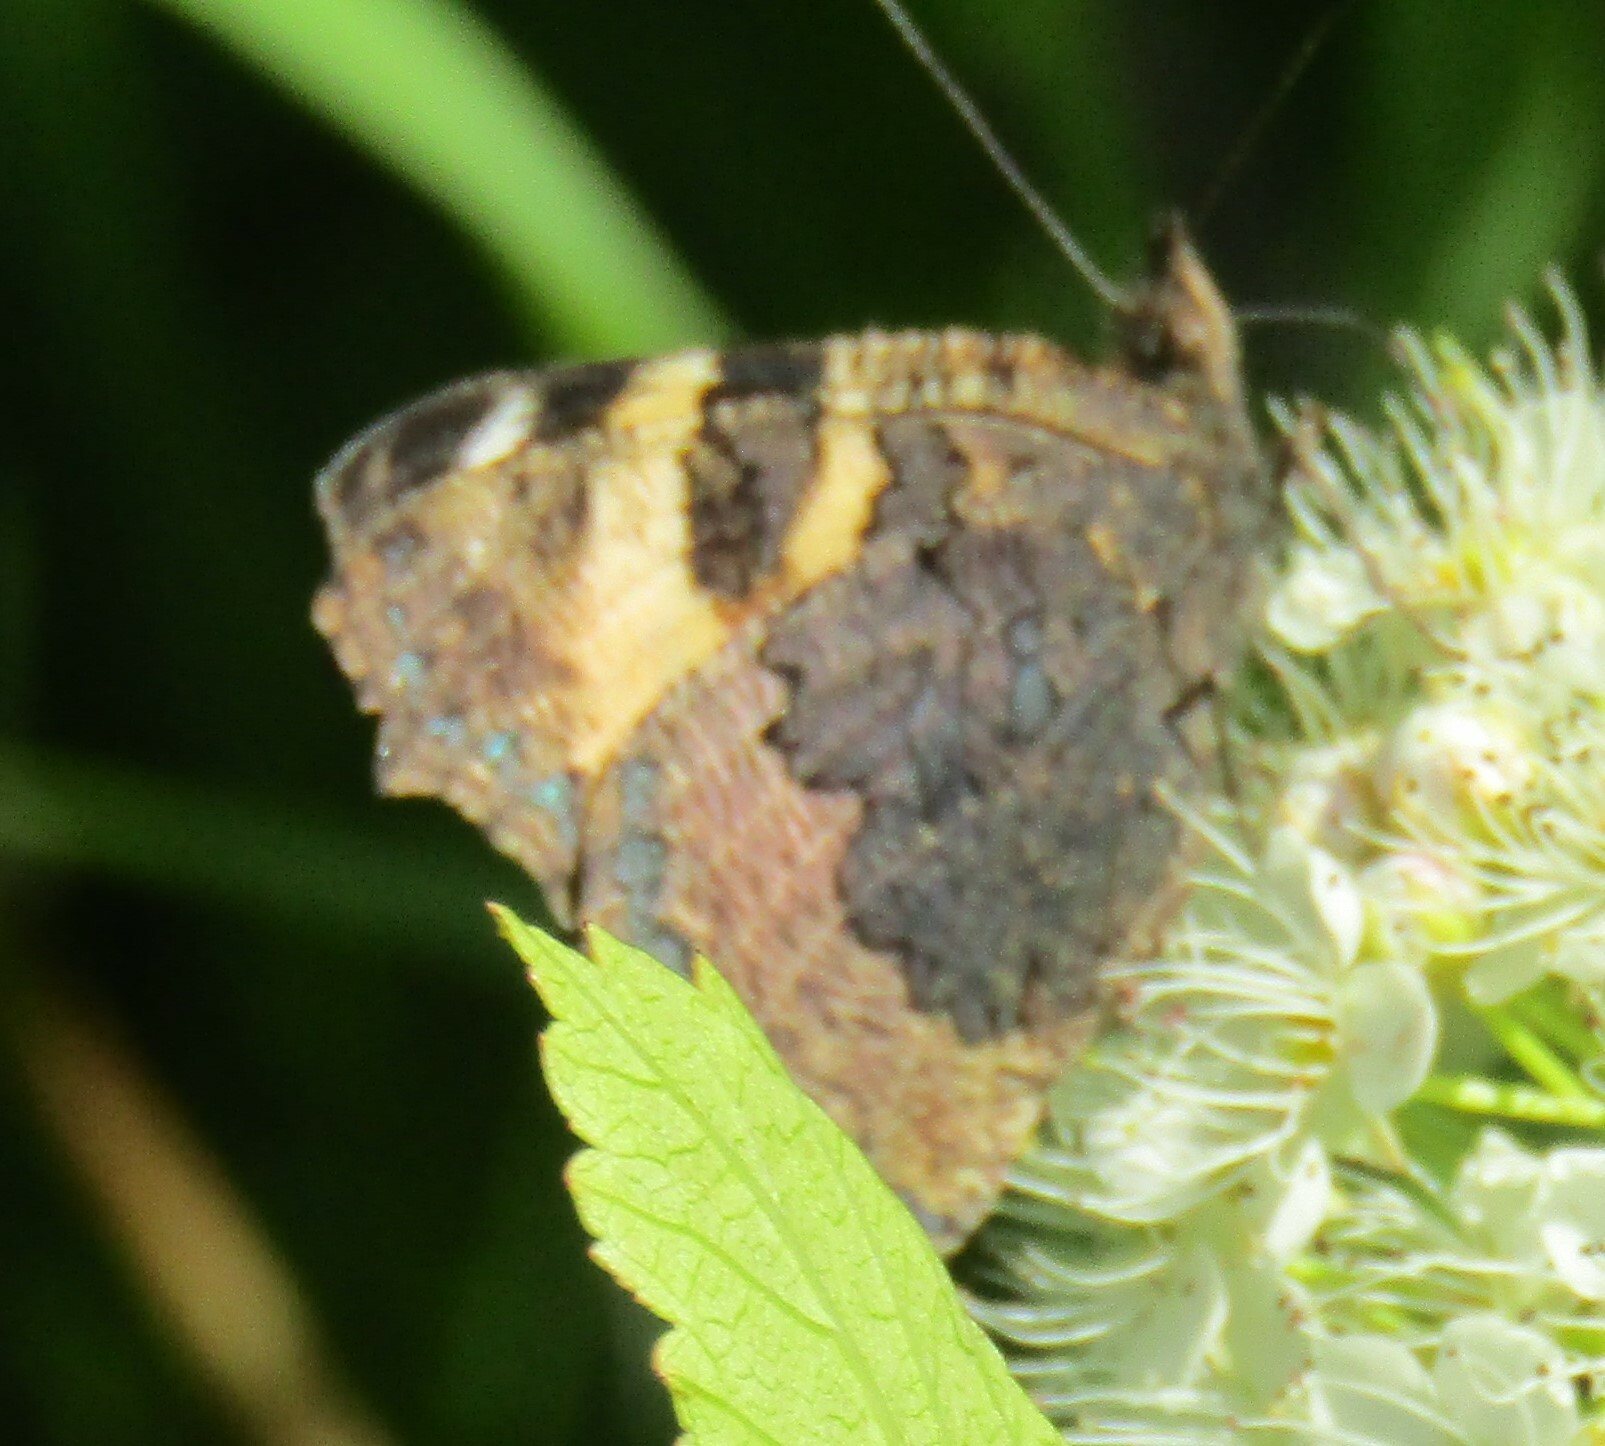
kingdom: Animalia
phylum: Arthropoda
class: Insecta
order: Lepidoptera
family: Nymphalidae
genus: Aglais
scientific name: Aglais urticae
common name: Small tortoiseshell
